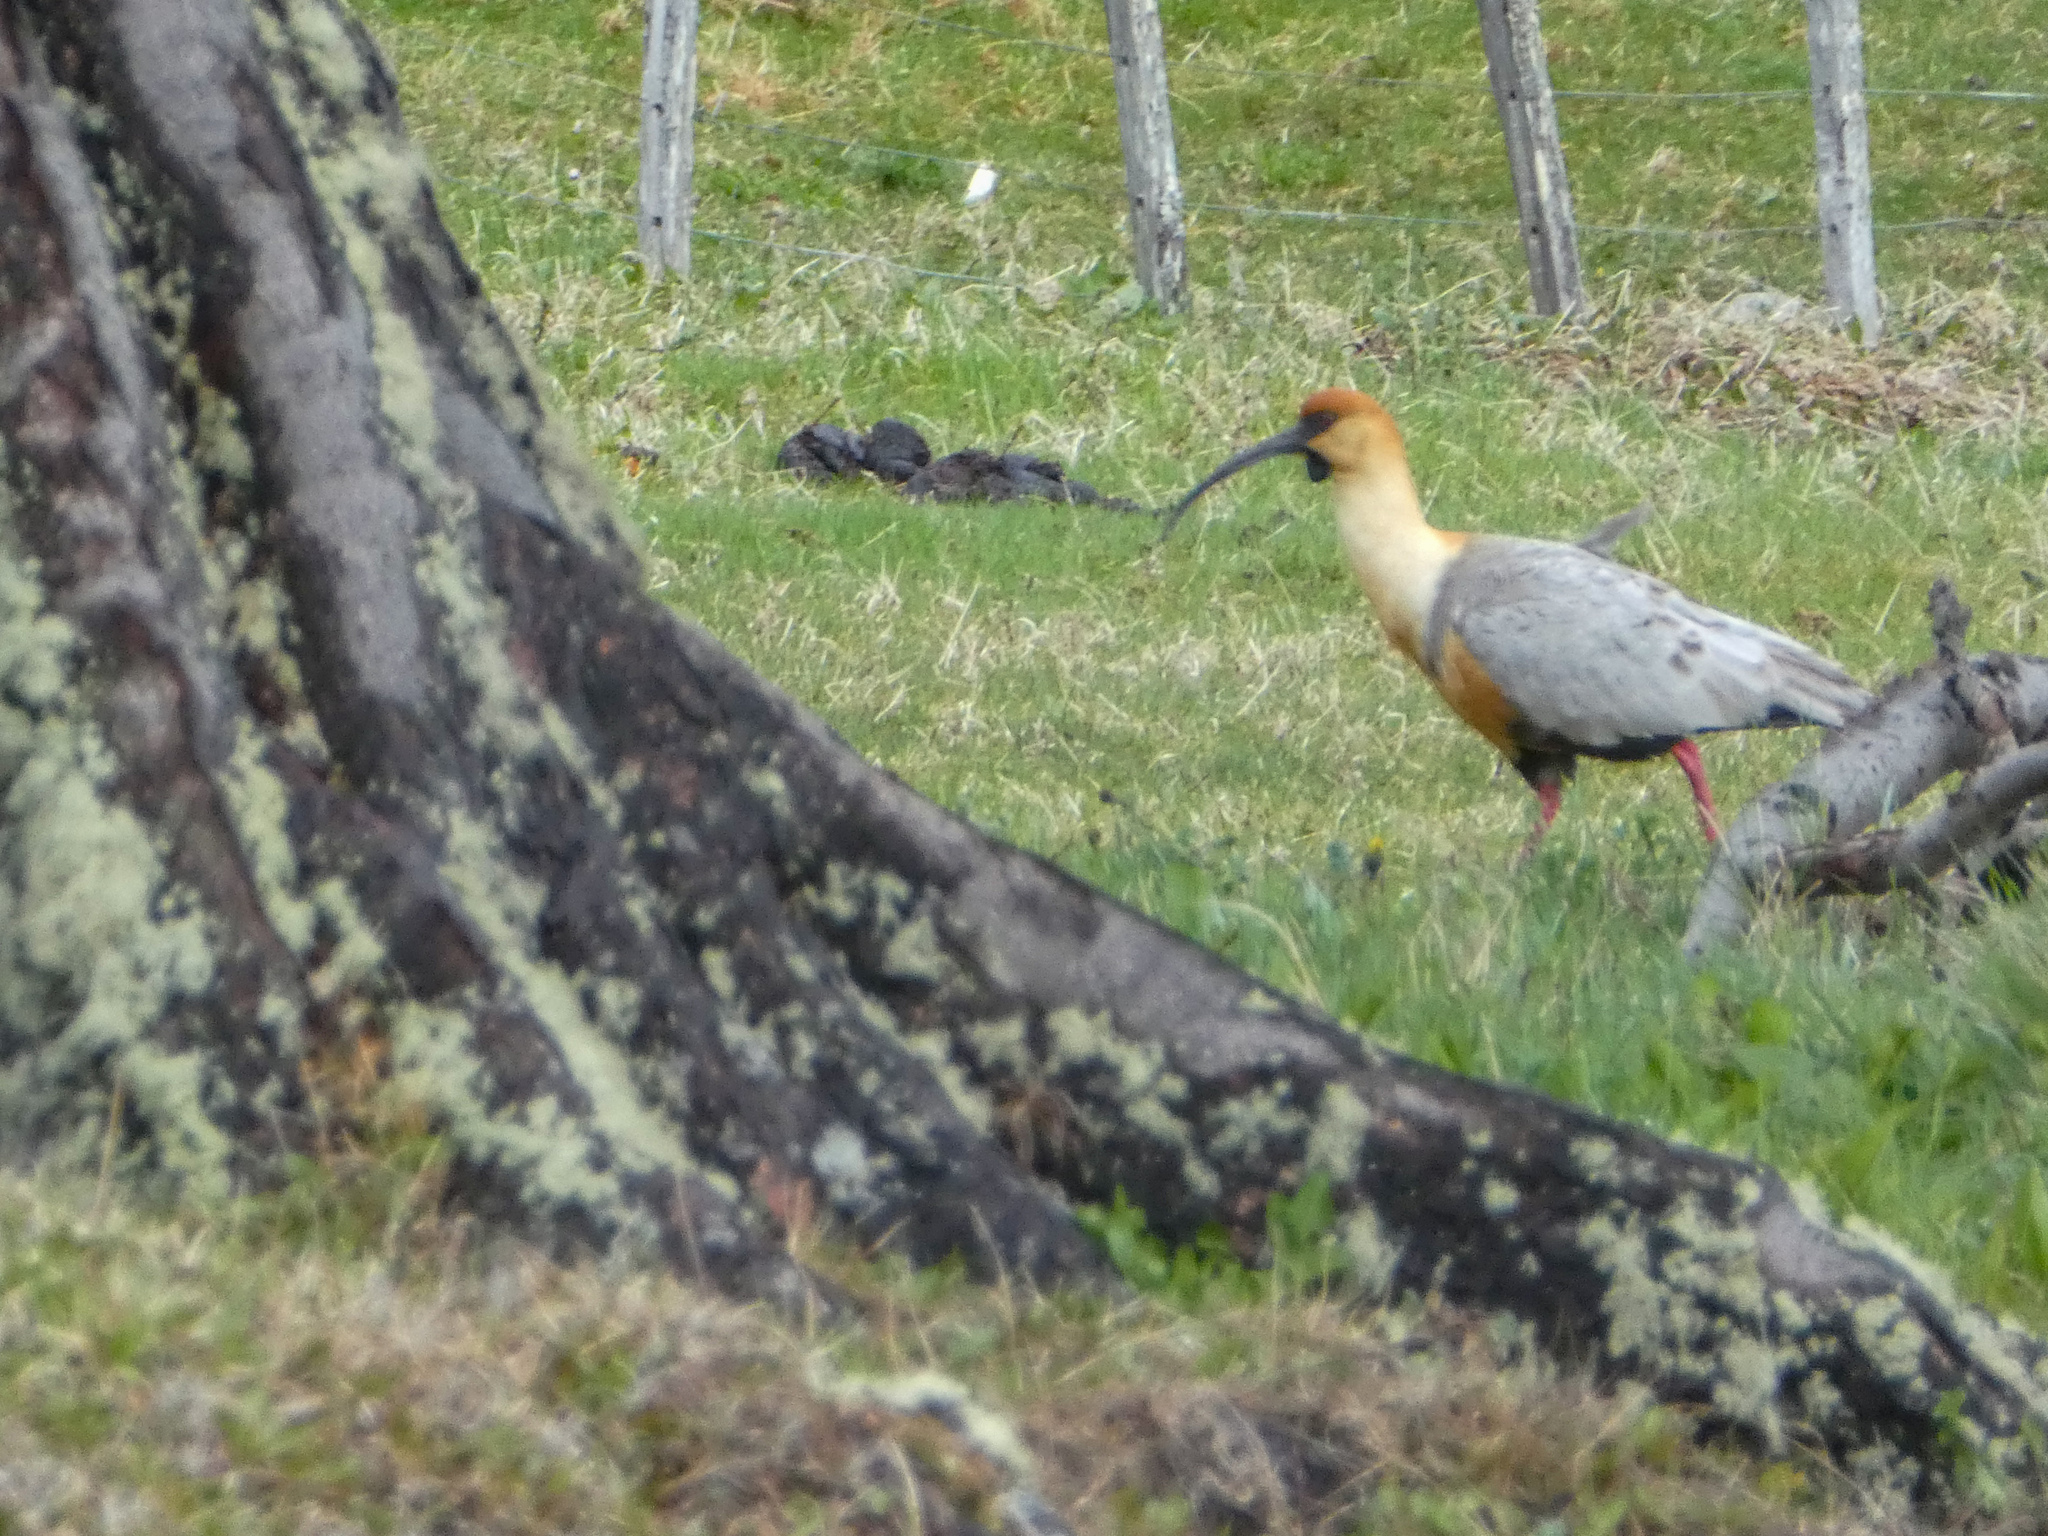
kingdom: Animalia
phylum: Chordata
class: Aves
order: Pelecaniformes
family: Threskiornithidae
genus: Theristicus
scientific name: Theristicus melanopis
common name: Black-faced ibis
